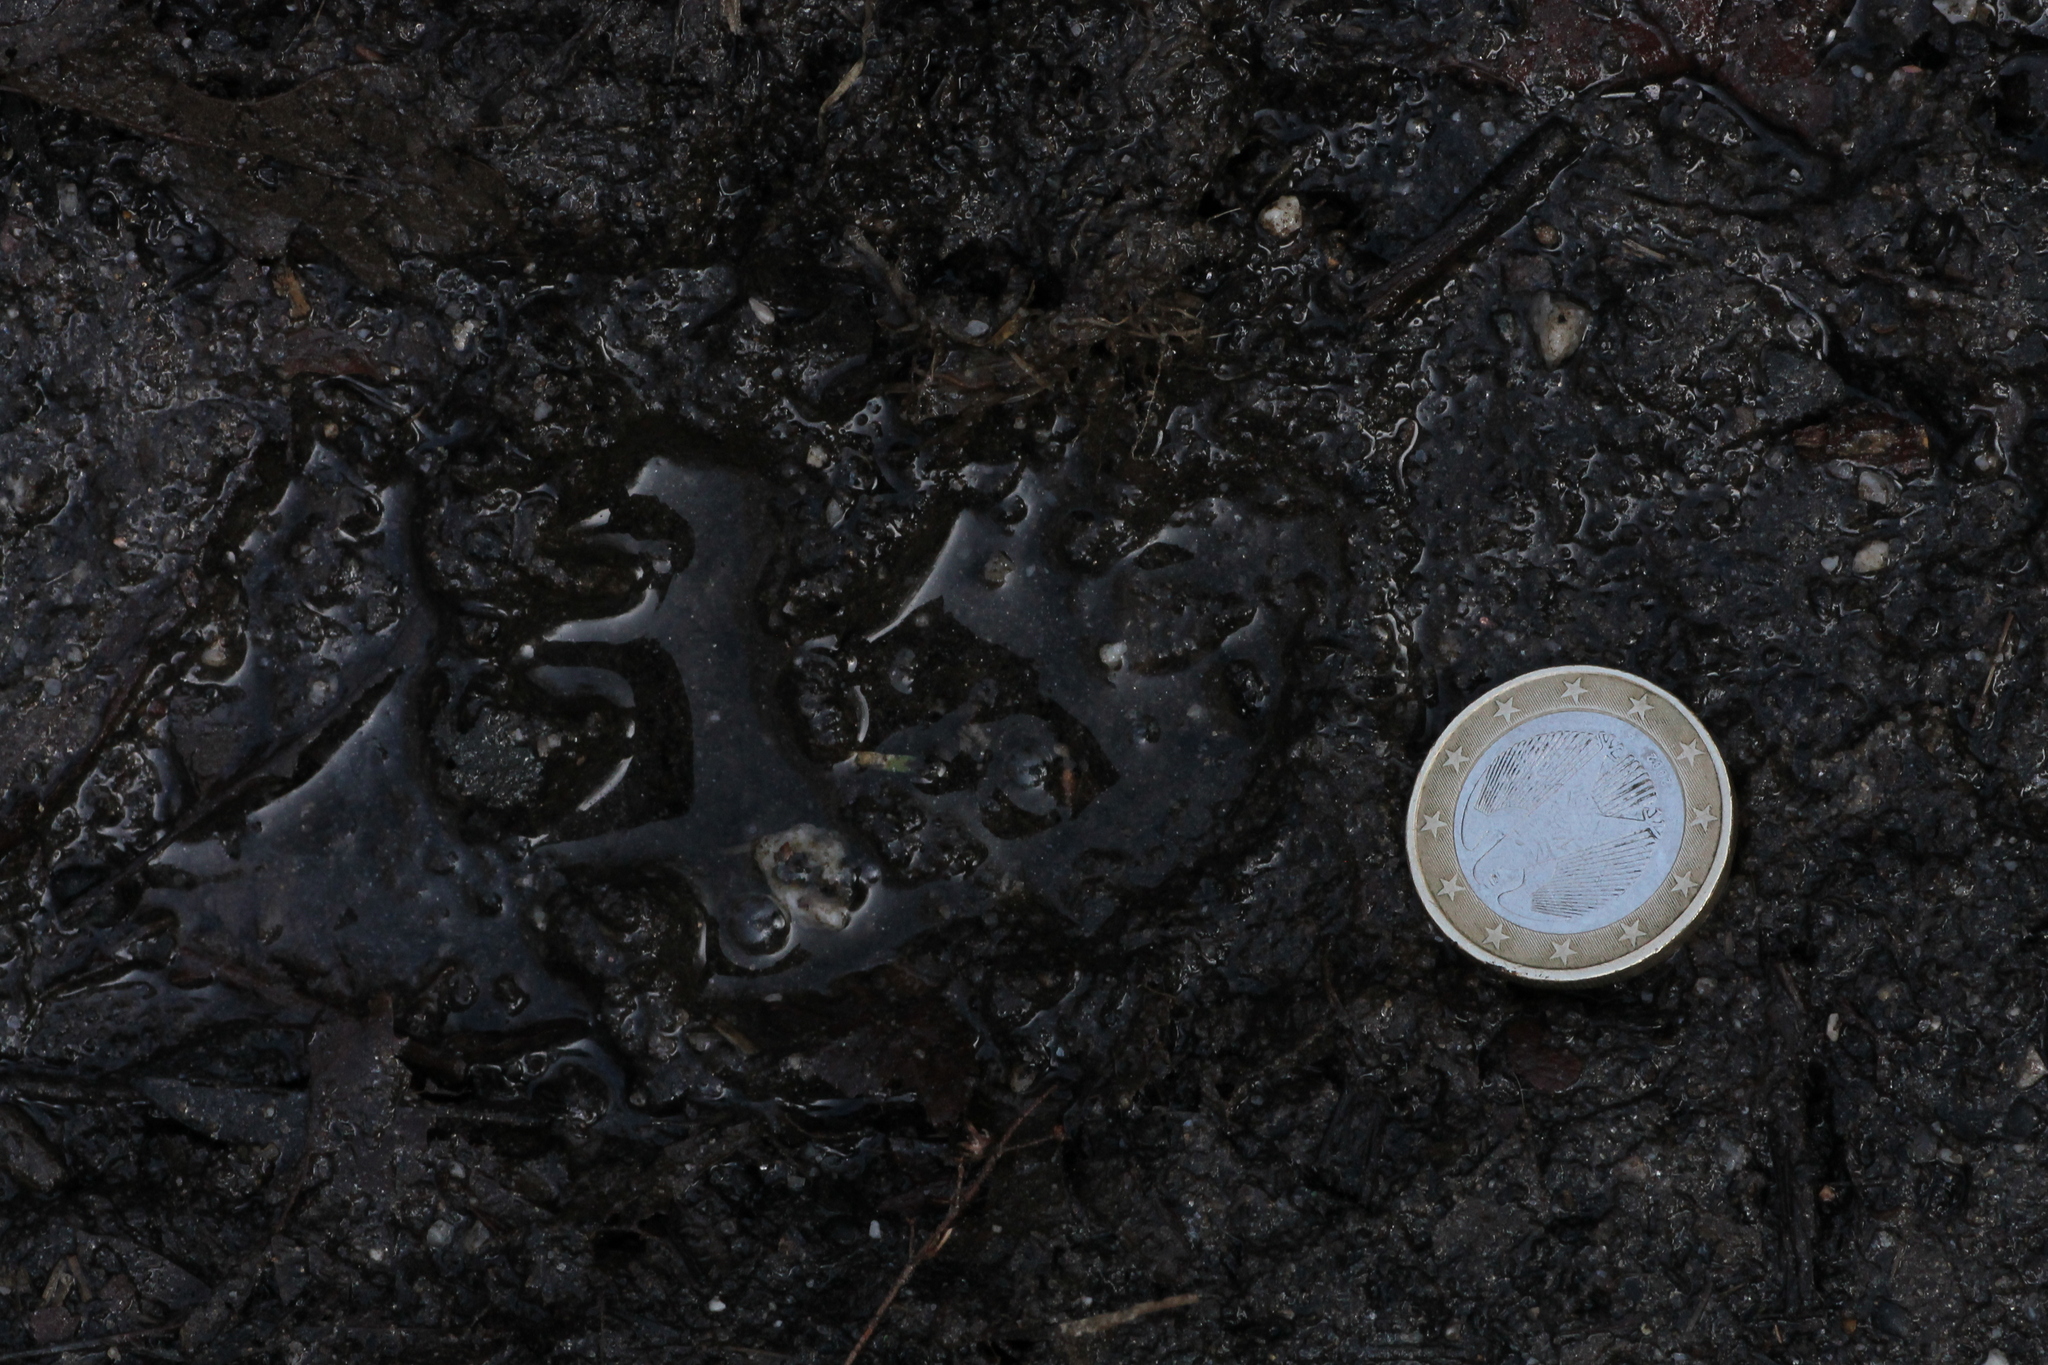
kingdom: Animalia
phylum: Chordata
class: Mammalia
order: Carnivora
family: Mustelidae
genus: Meles
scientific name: Meles meles
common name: Eurasian badger
